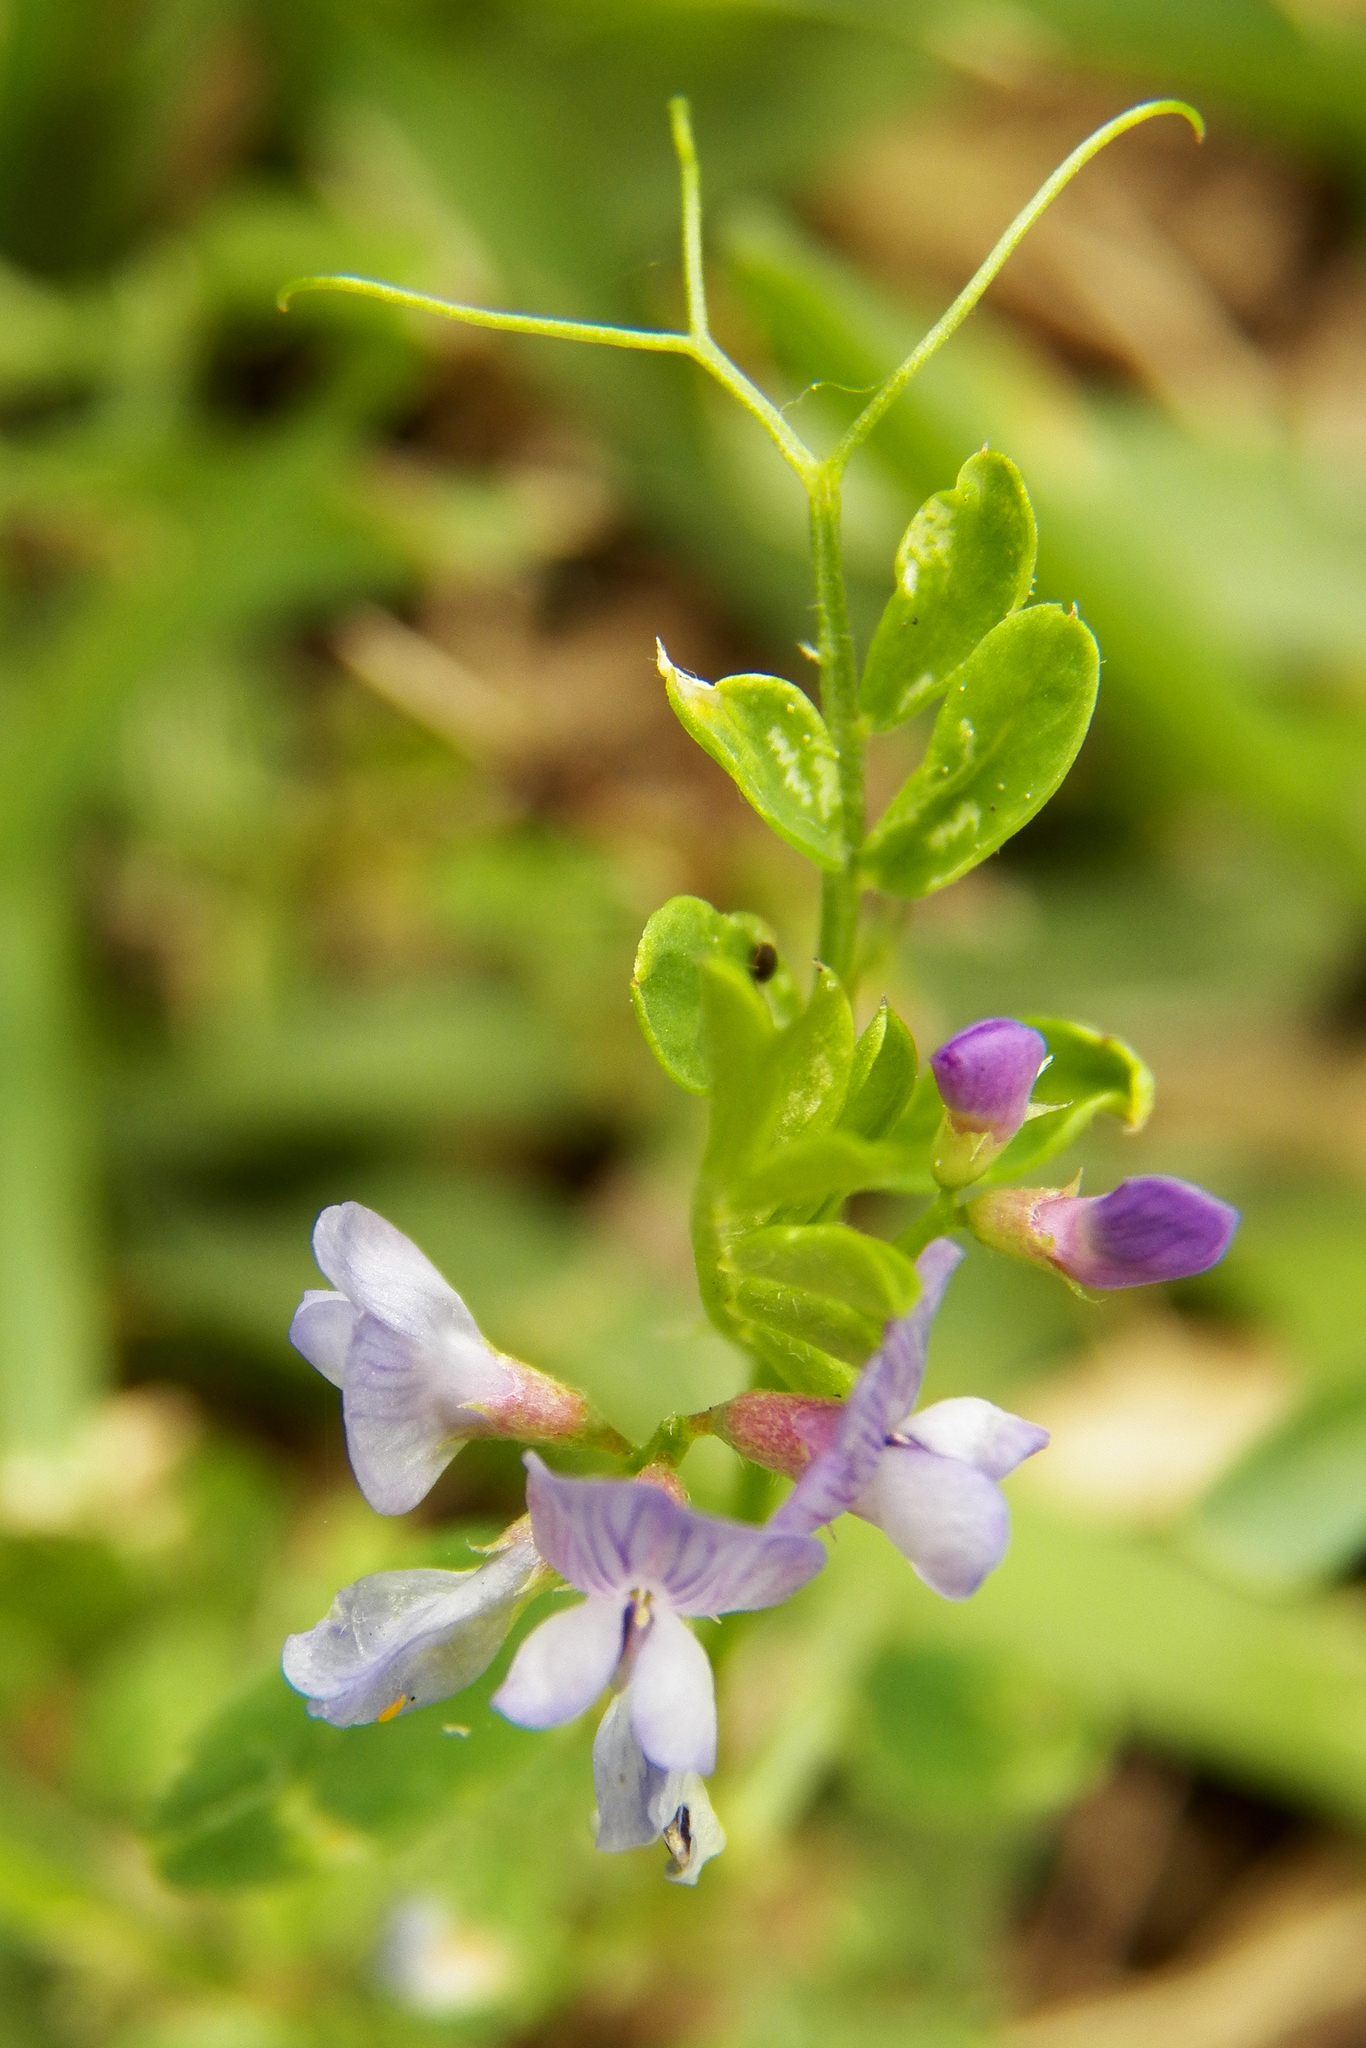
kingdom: Plantae
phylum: Tracheophyta
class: Magnoliopsida
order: Fabales
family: Fabaceae
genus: Vicia
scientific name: Vicia ludoviciana
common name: Louisiana vetch
